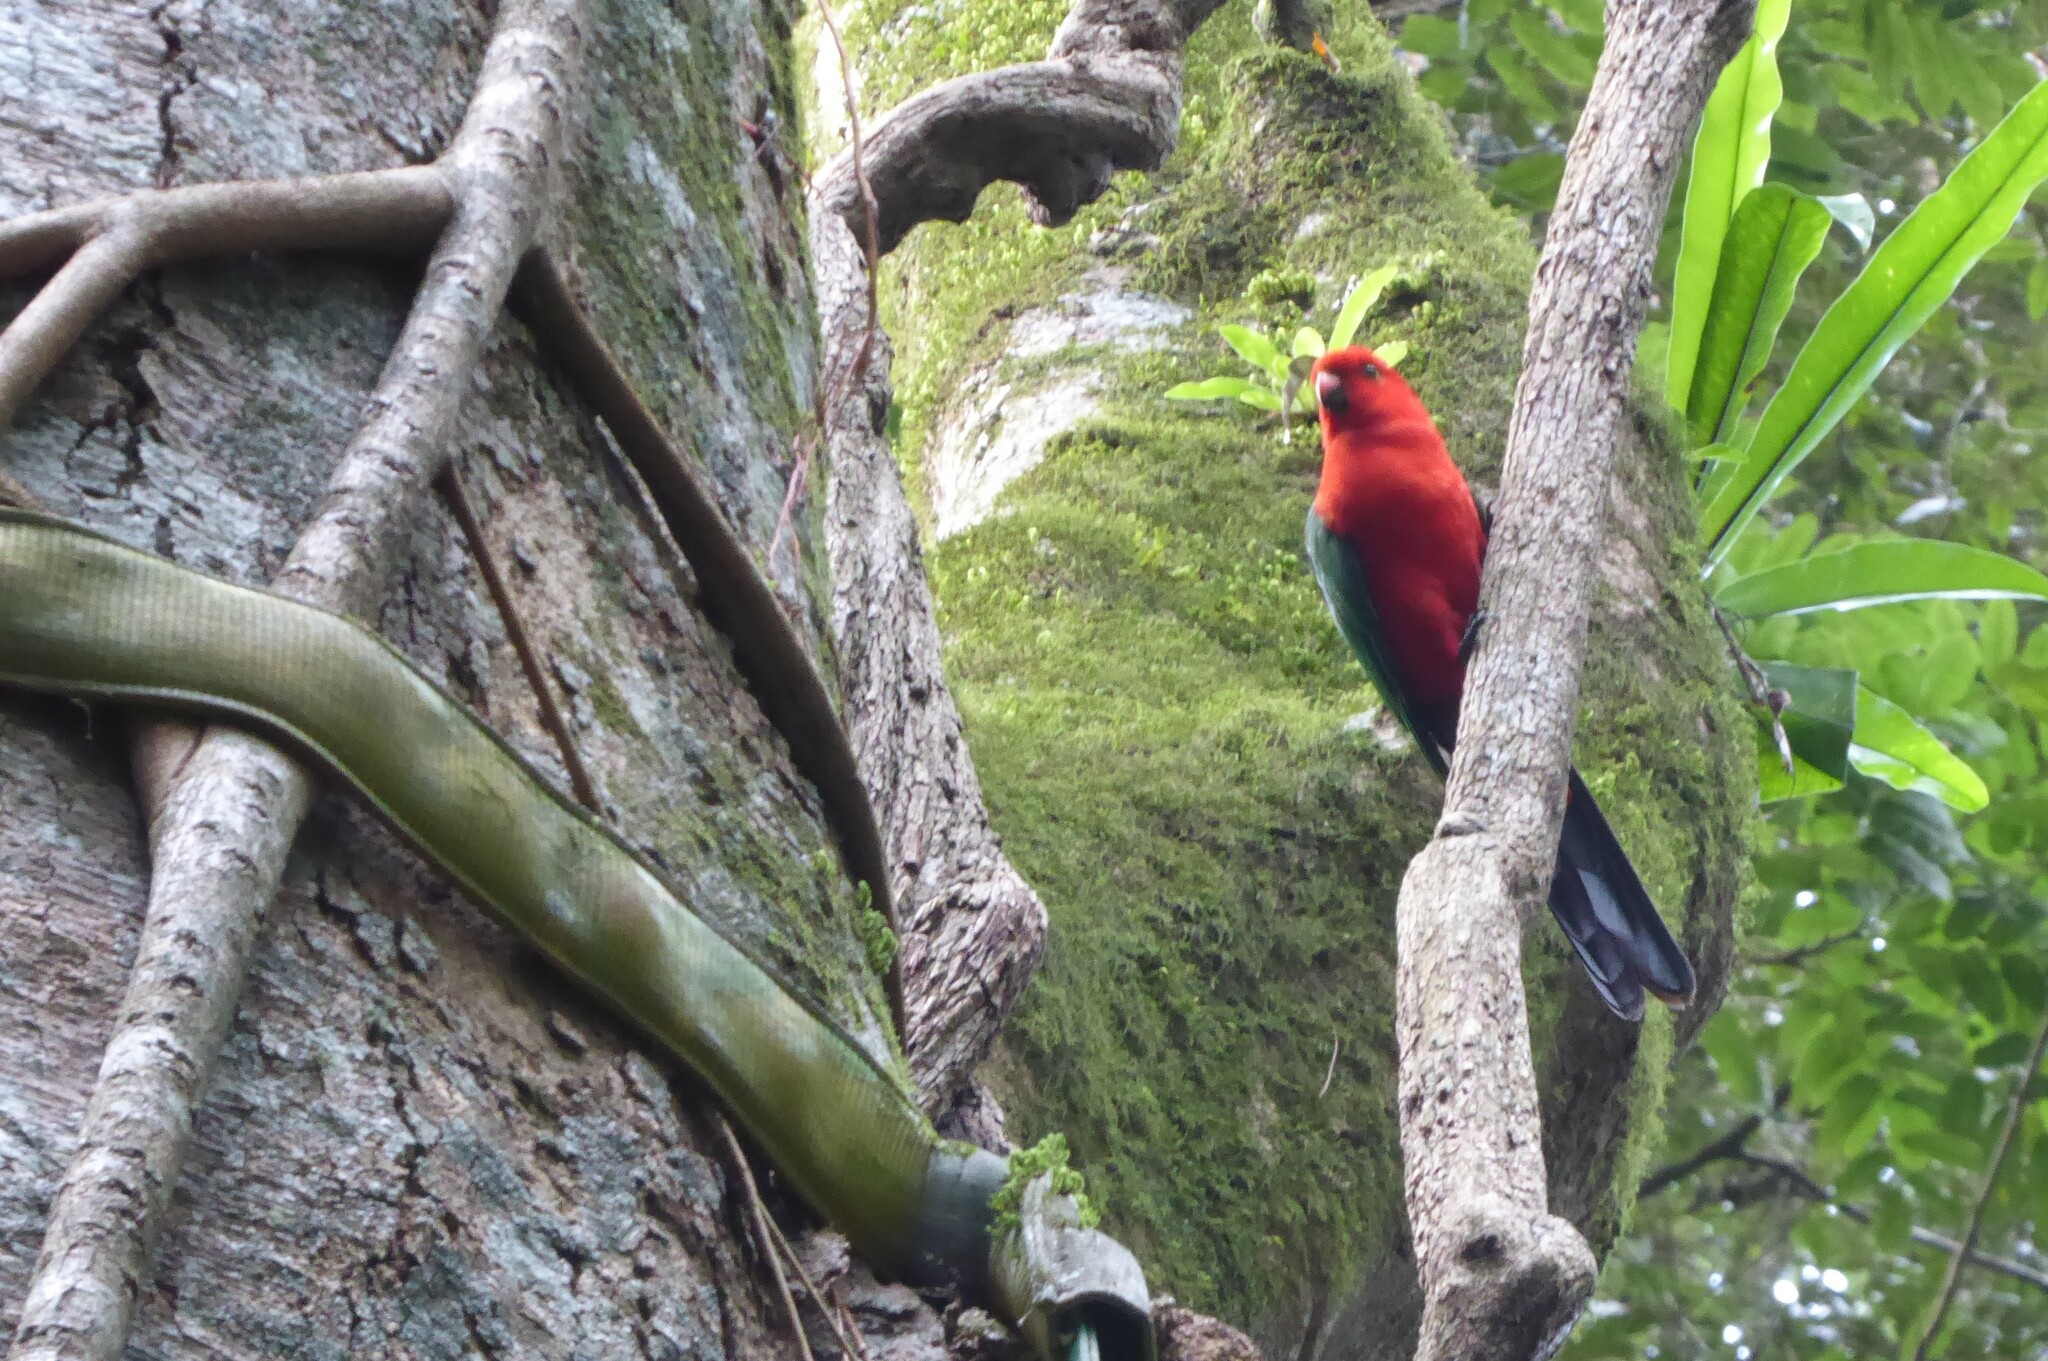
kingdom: Animalia
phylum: Chordata
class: Aves
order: Psittaciformes
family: Psittacidae
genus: Alisterus
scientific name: Alisterus scapularis
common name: Australian king parrot
